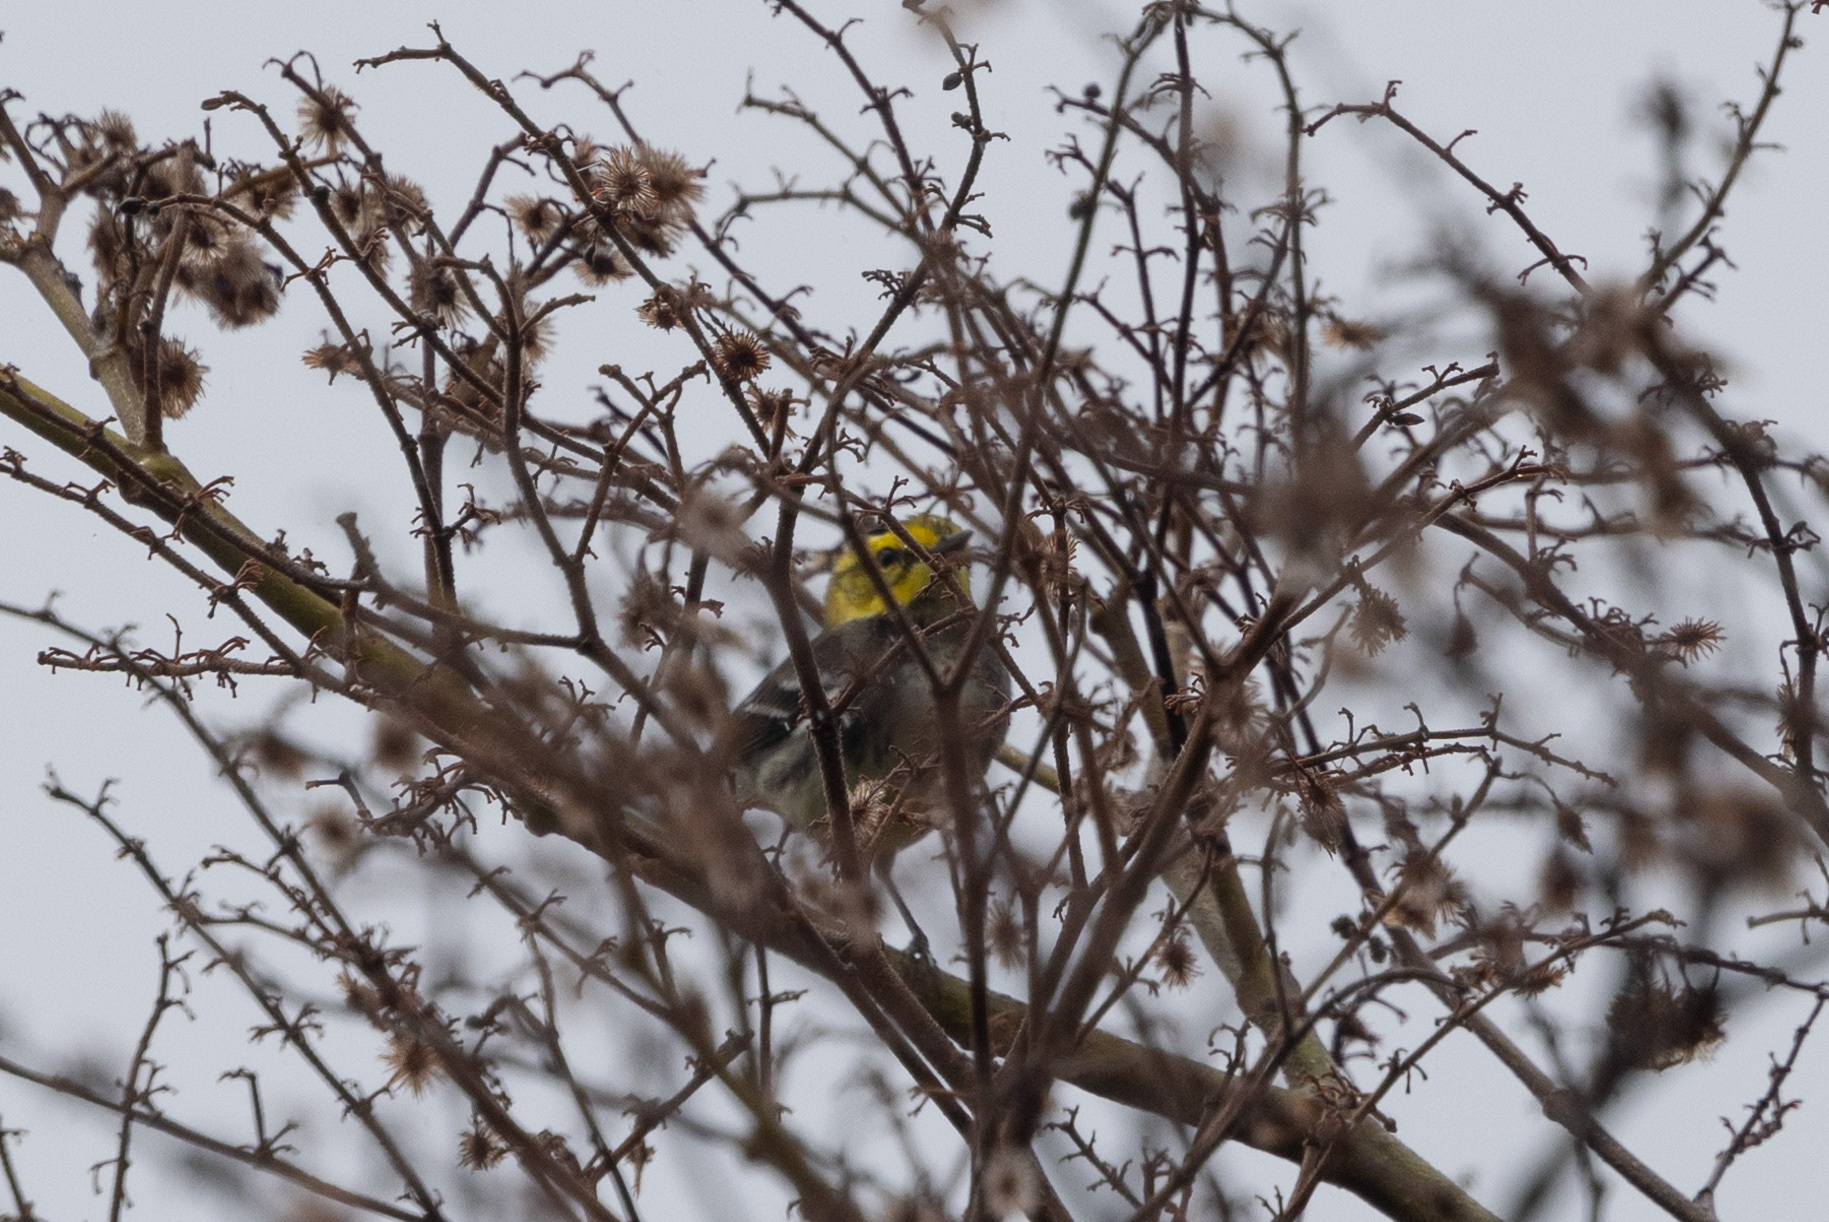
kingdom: Animalia
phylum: Chordata
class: Aves
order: Passeriformes
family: Parulidae
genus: Setophaga
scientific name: Setophaga virens
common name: Black-throated green warbler
